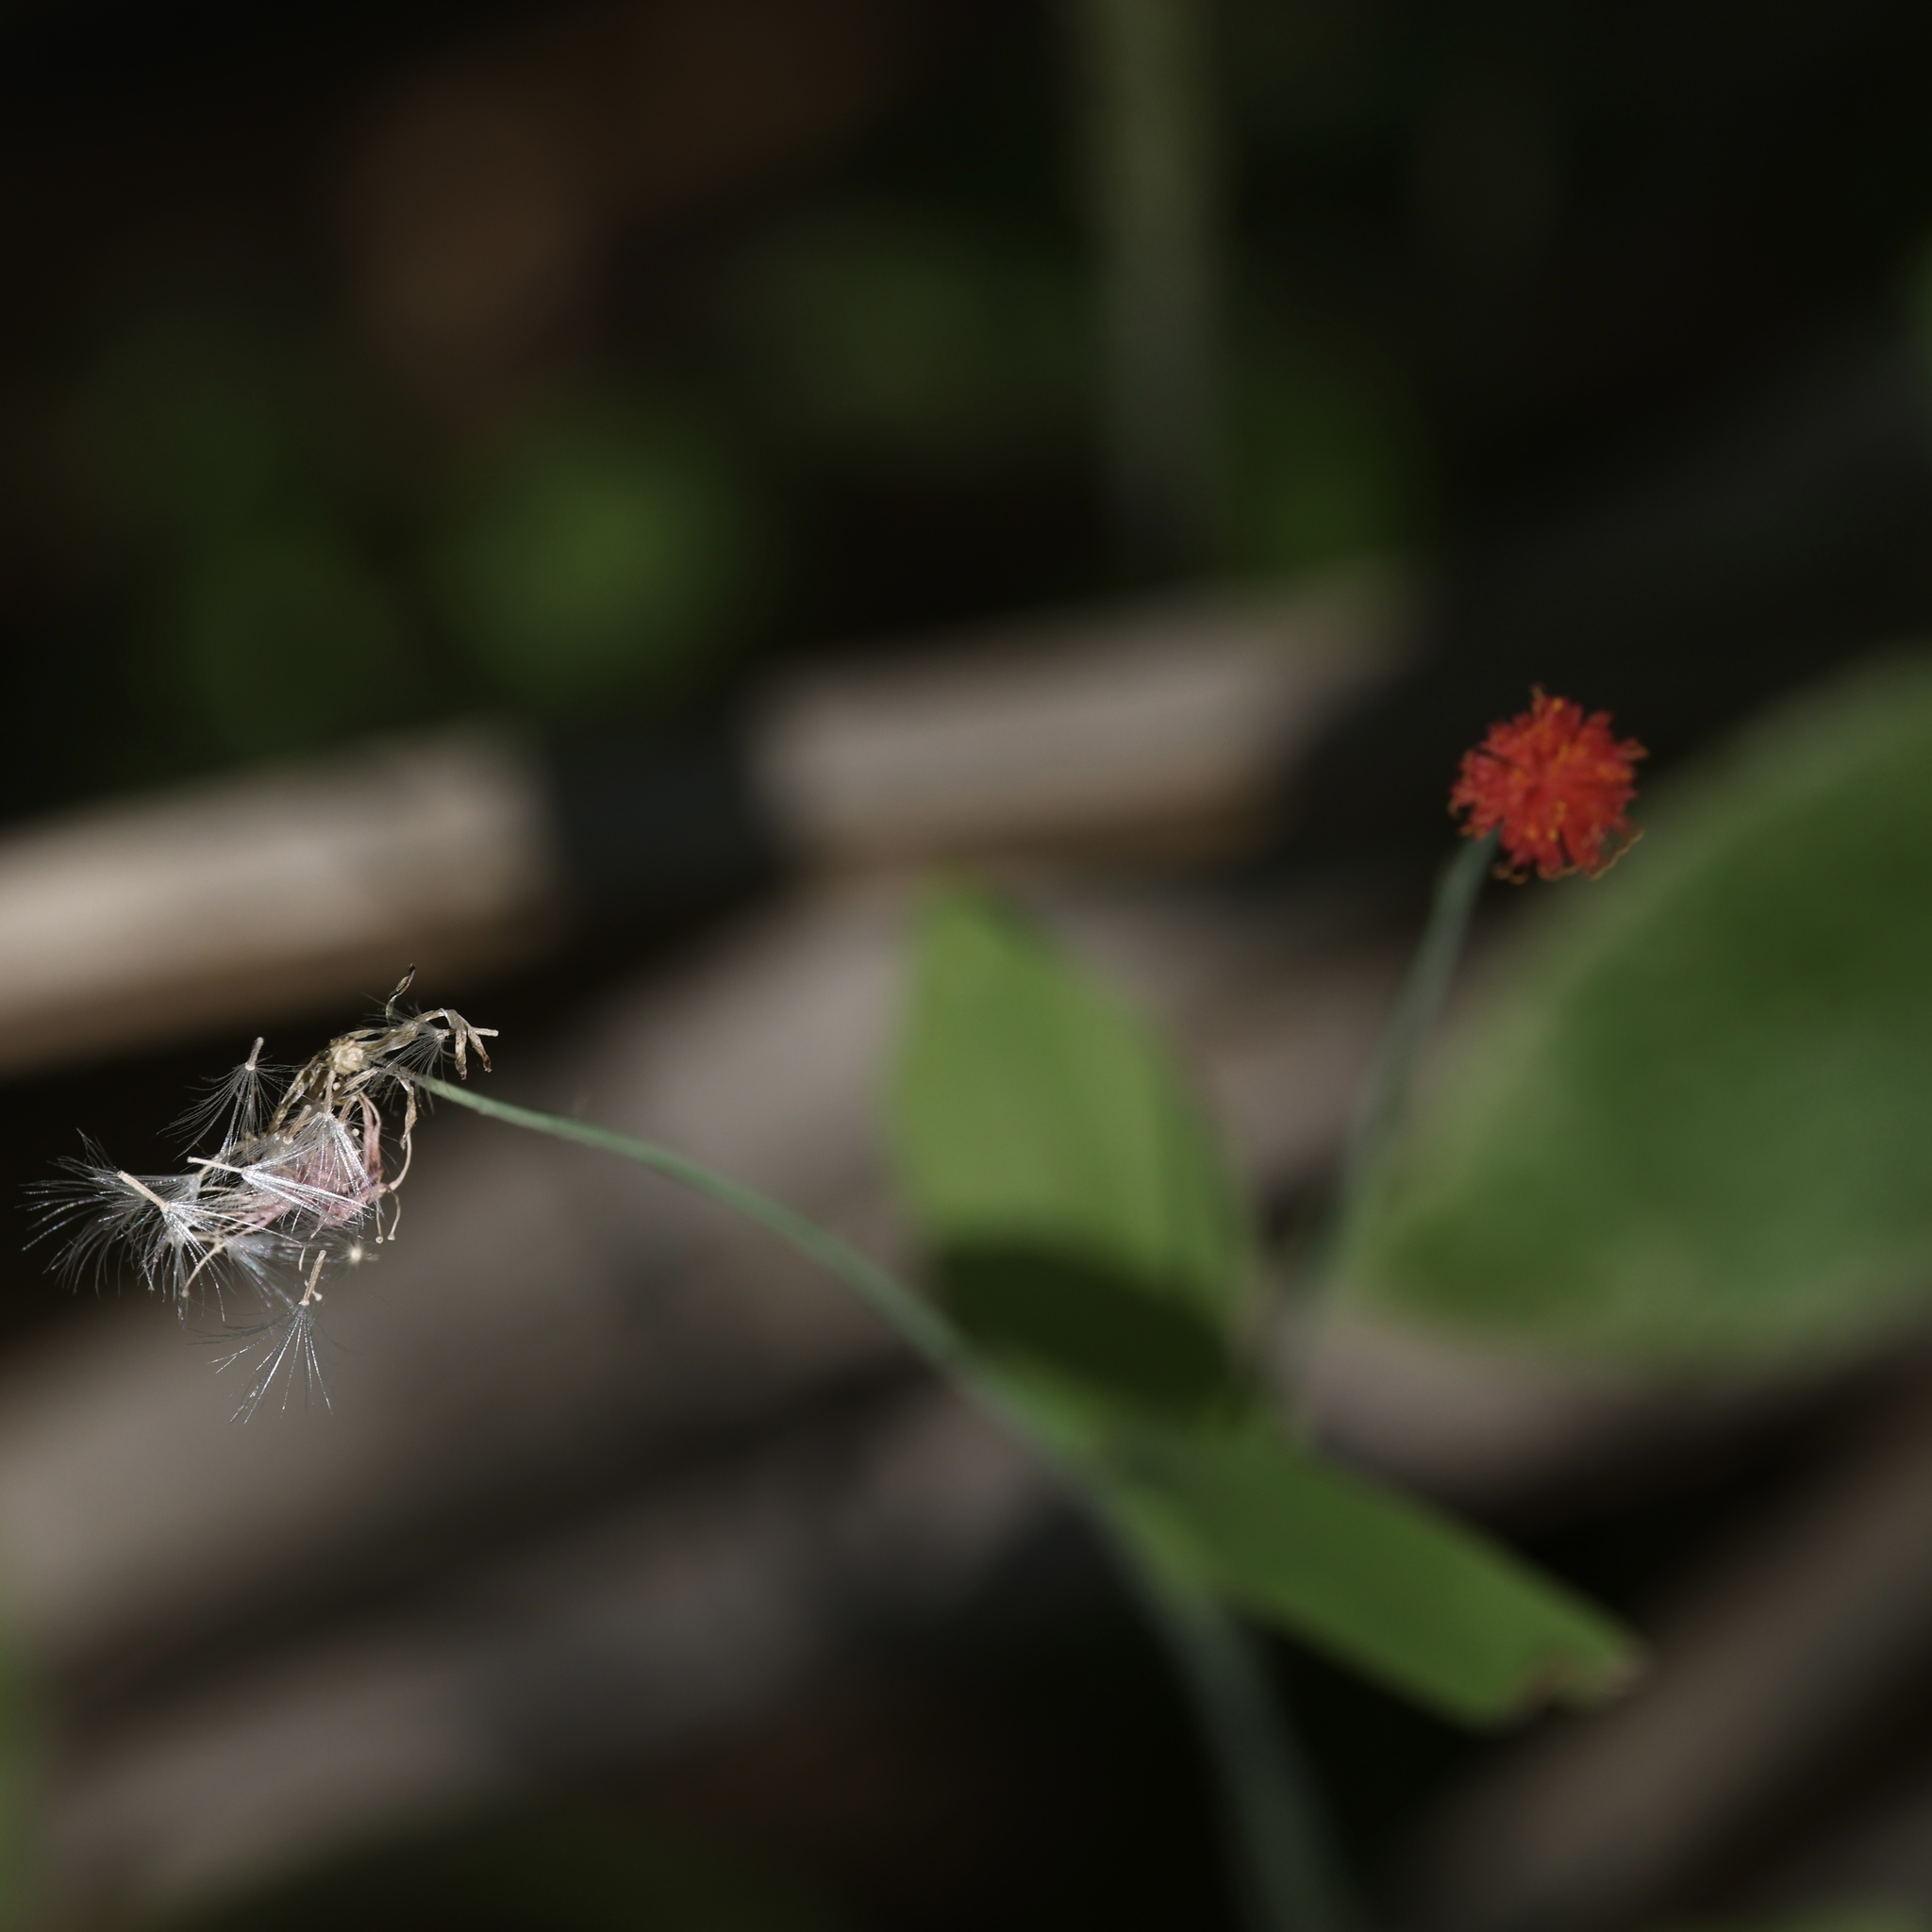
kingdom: Plantae
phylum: Tracheophyta
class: Magnoliopsida
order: Asterales
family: Asteraceae
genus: Emilia
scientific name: Emilia fosbergii
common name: Florida tasselflower
